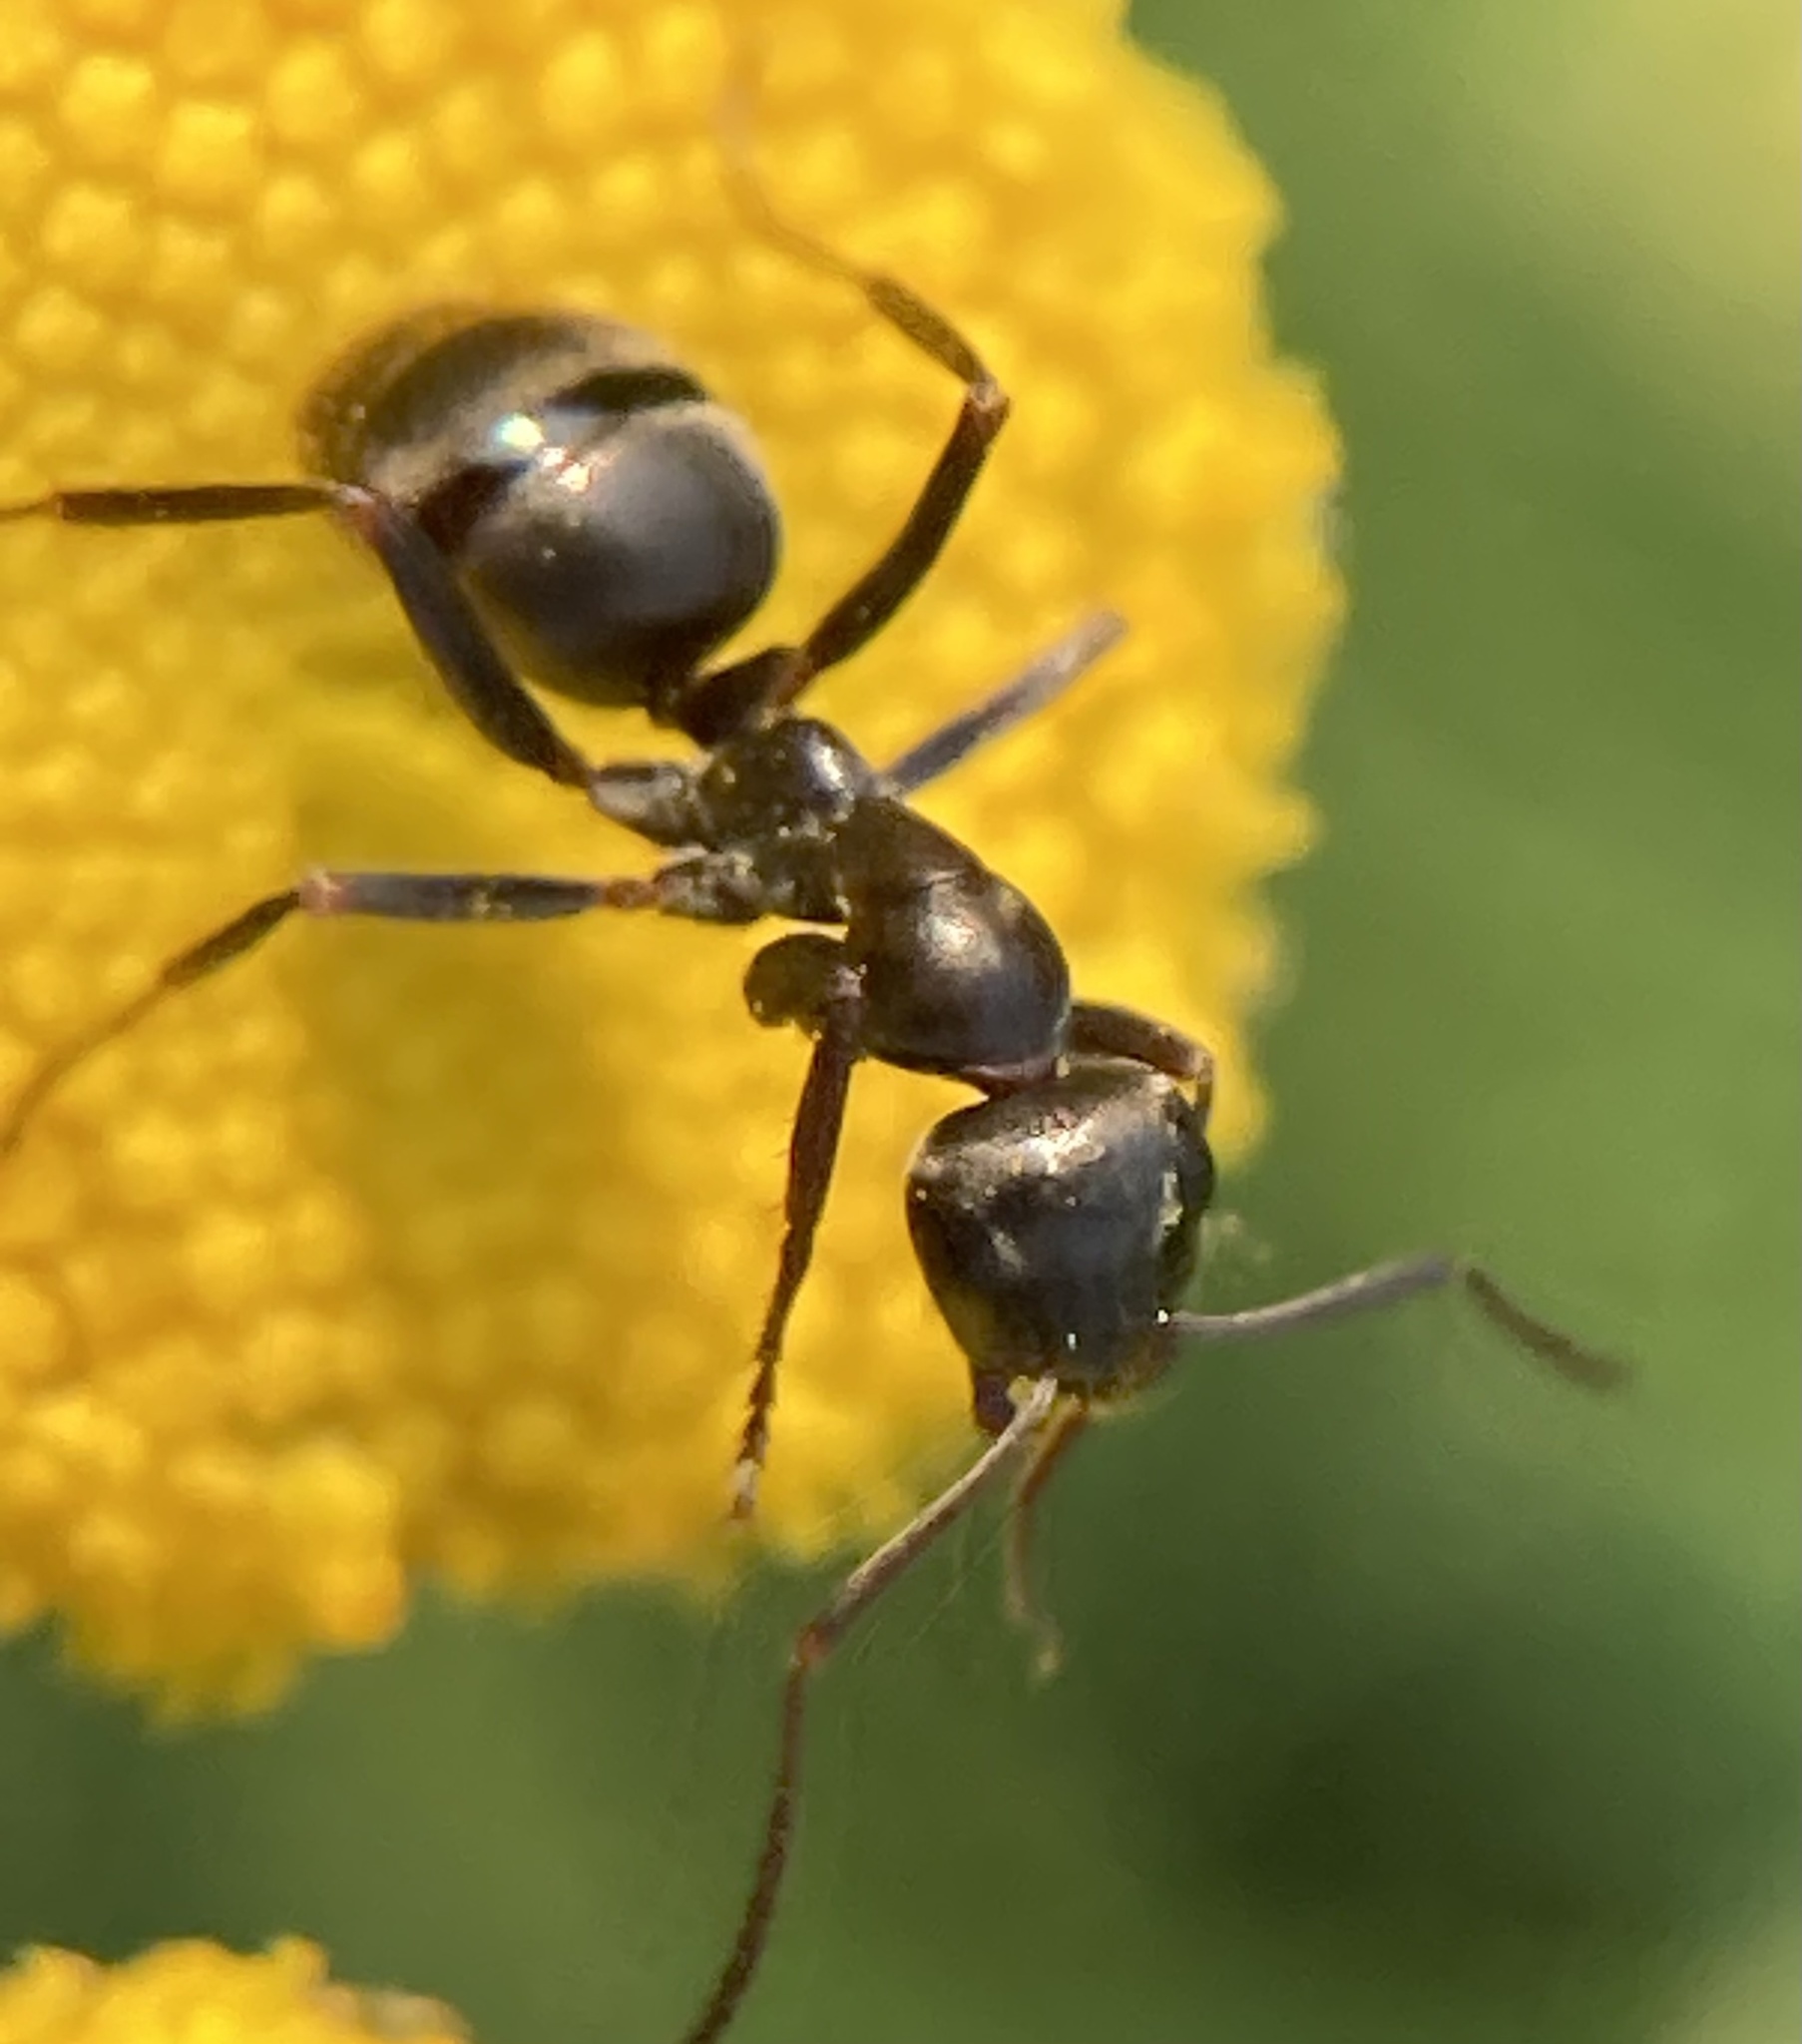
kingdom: Animalia
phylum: Arthropoda
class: Insecta
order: Hymenoptera
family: Formicidae
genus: Formica
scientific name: Formica
